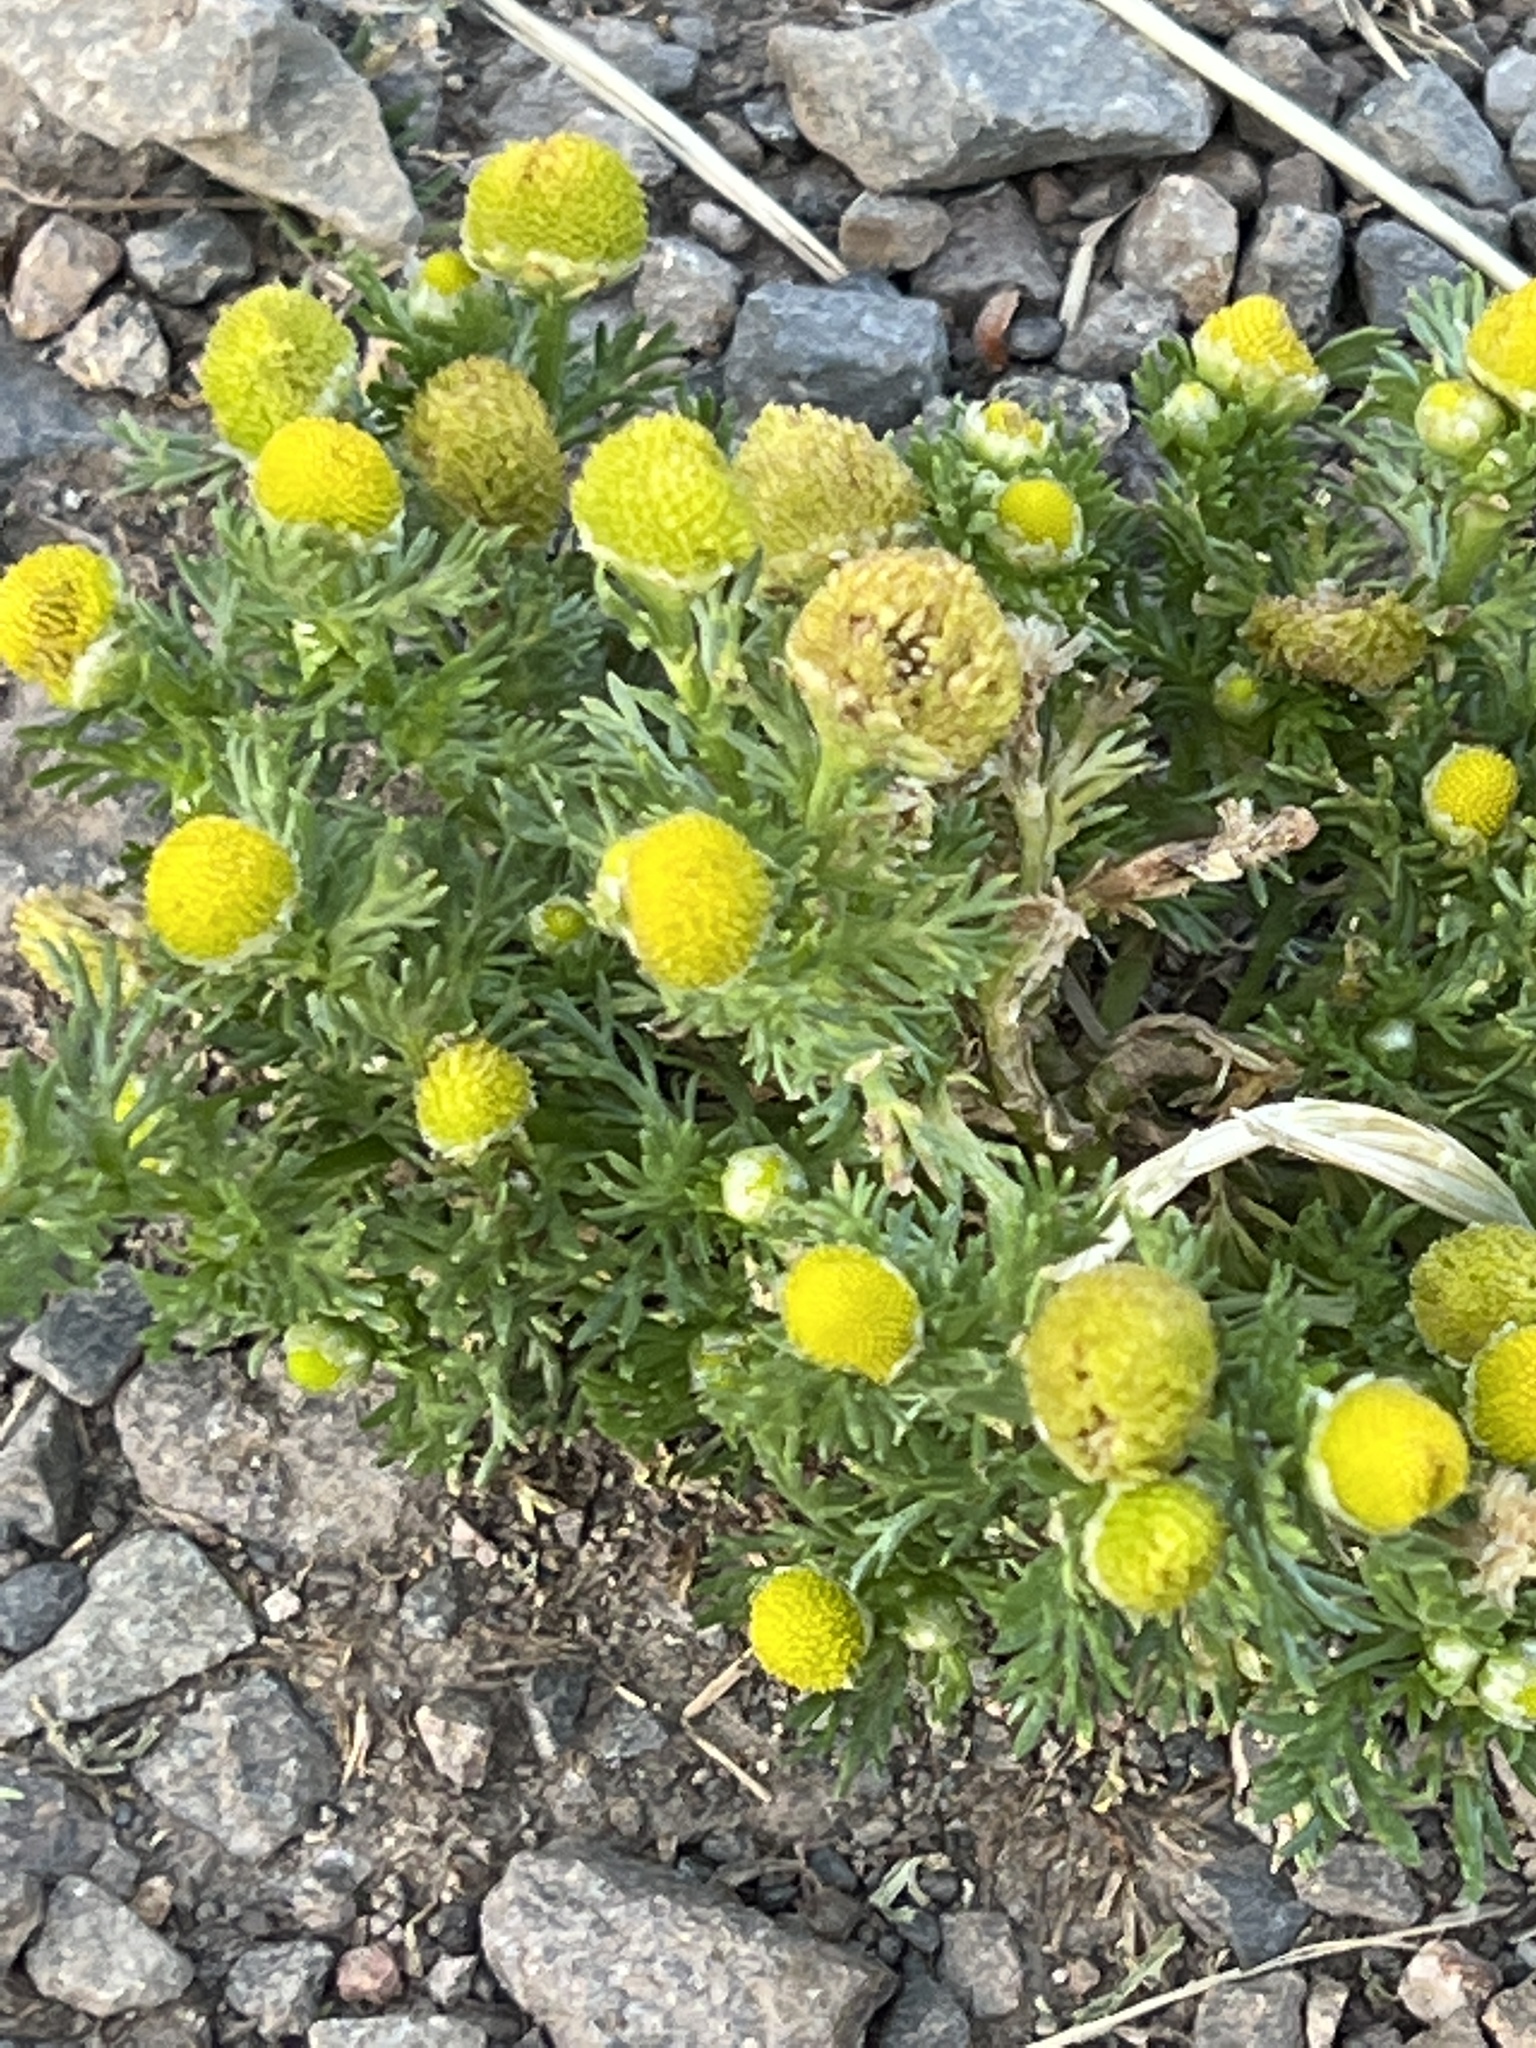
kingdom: Plantae
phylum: Tracheophyta
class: Magnoliopsida
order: Asterales
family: Asteraceae
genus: Matricaria
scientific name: Matricaria discoidea
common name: Disc mayweed
